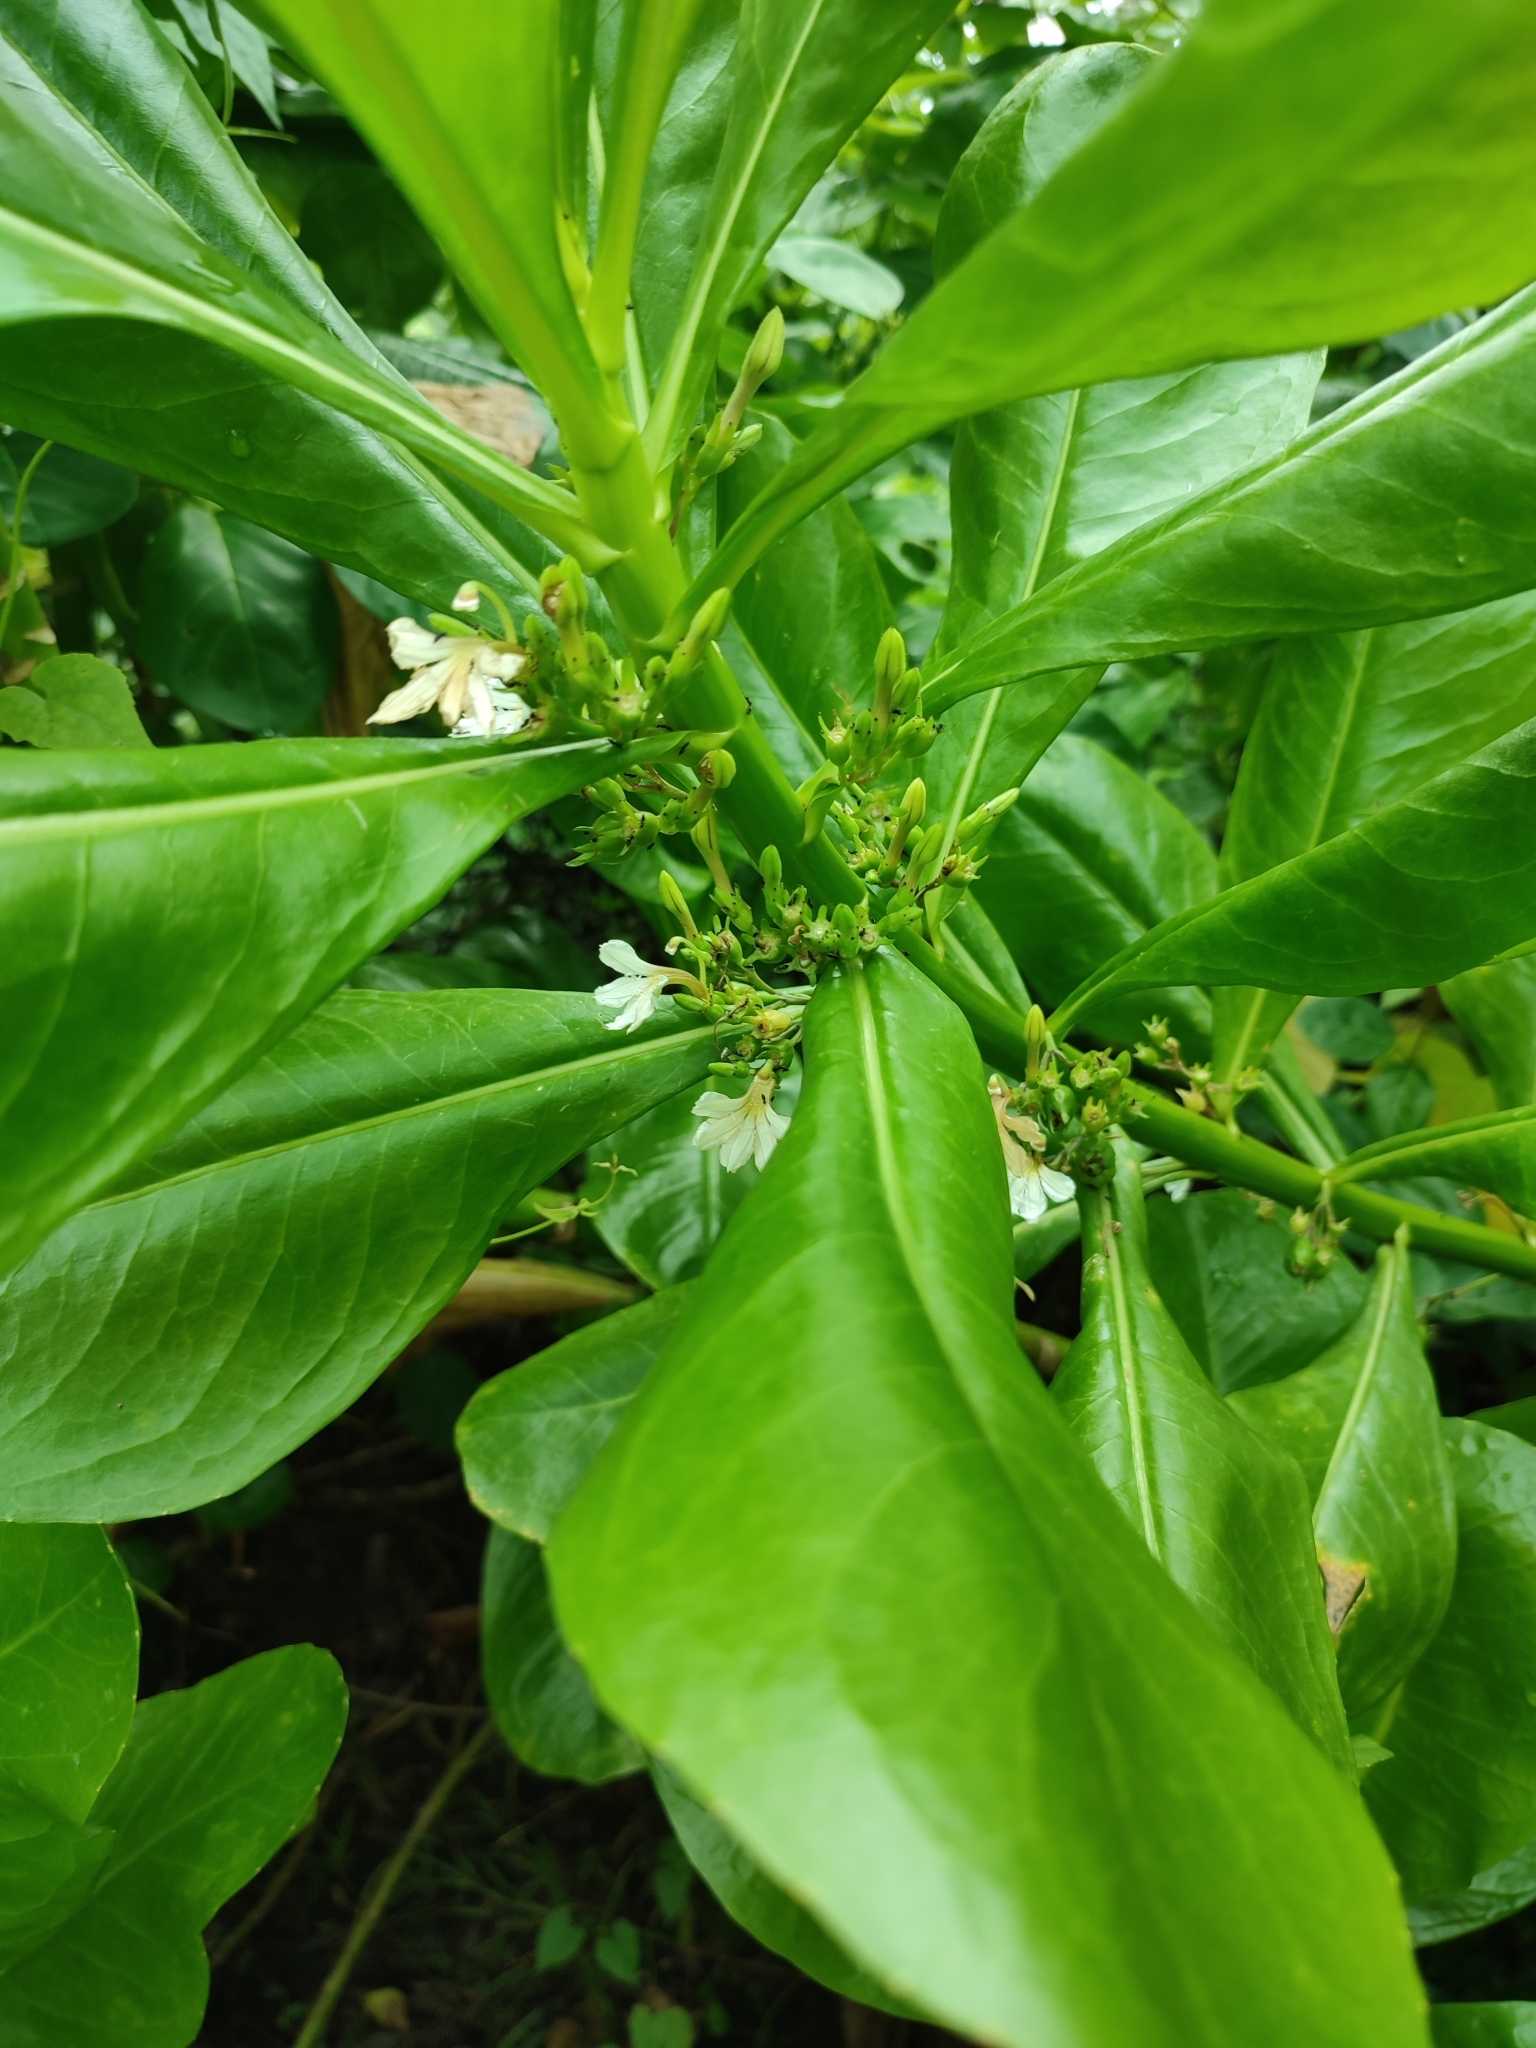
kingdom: Plantae
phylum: Tracheophyta
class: Magnoliopsida
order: Asterales
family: Goodeniaceae
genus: Scaevola
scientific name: Scaevola taccada
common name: Sea lettucetree
